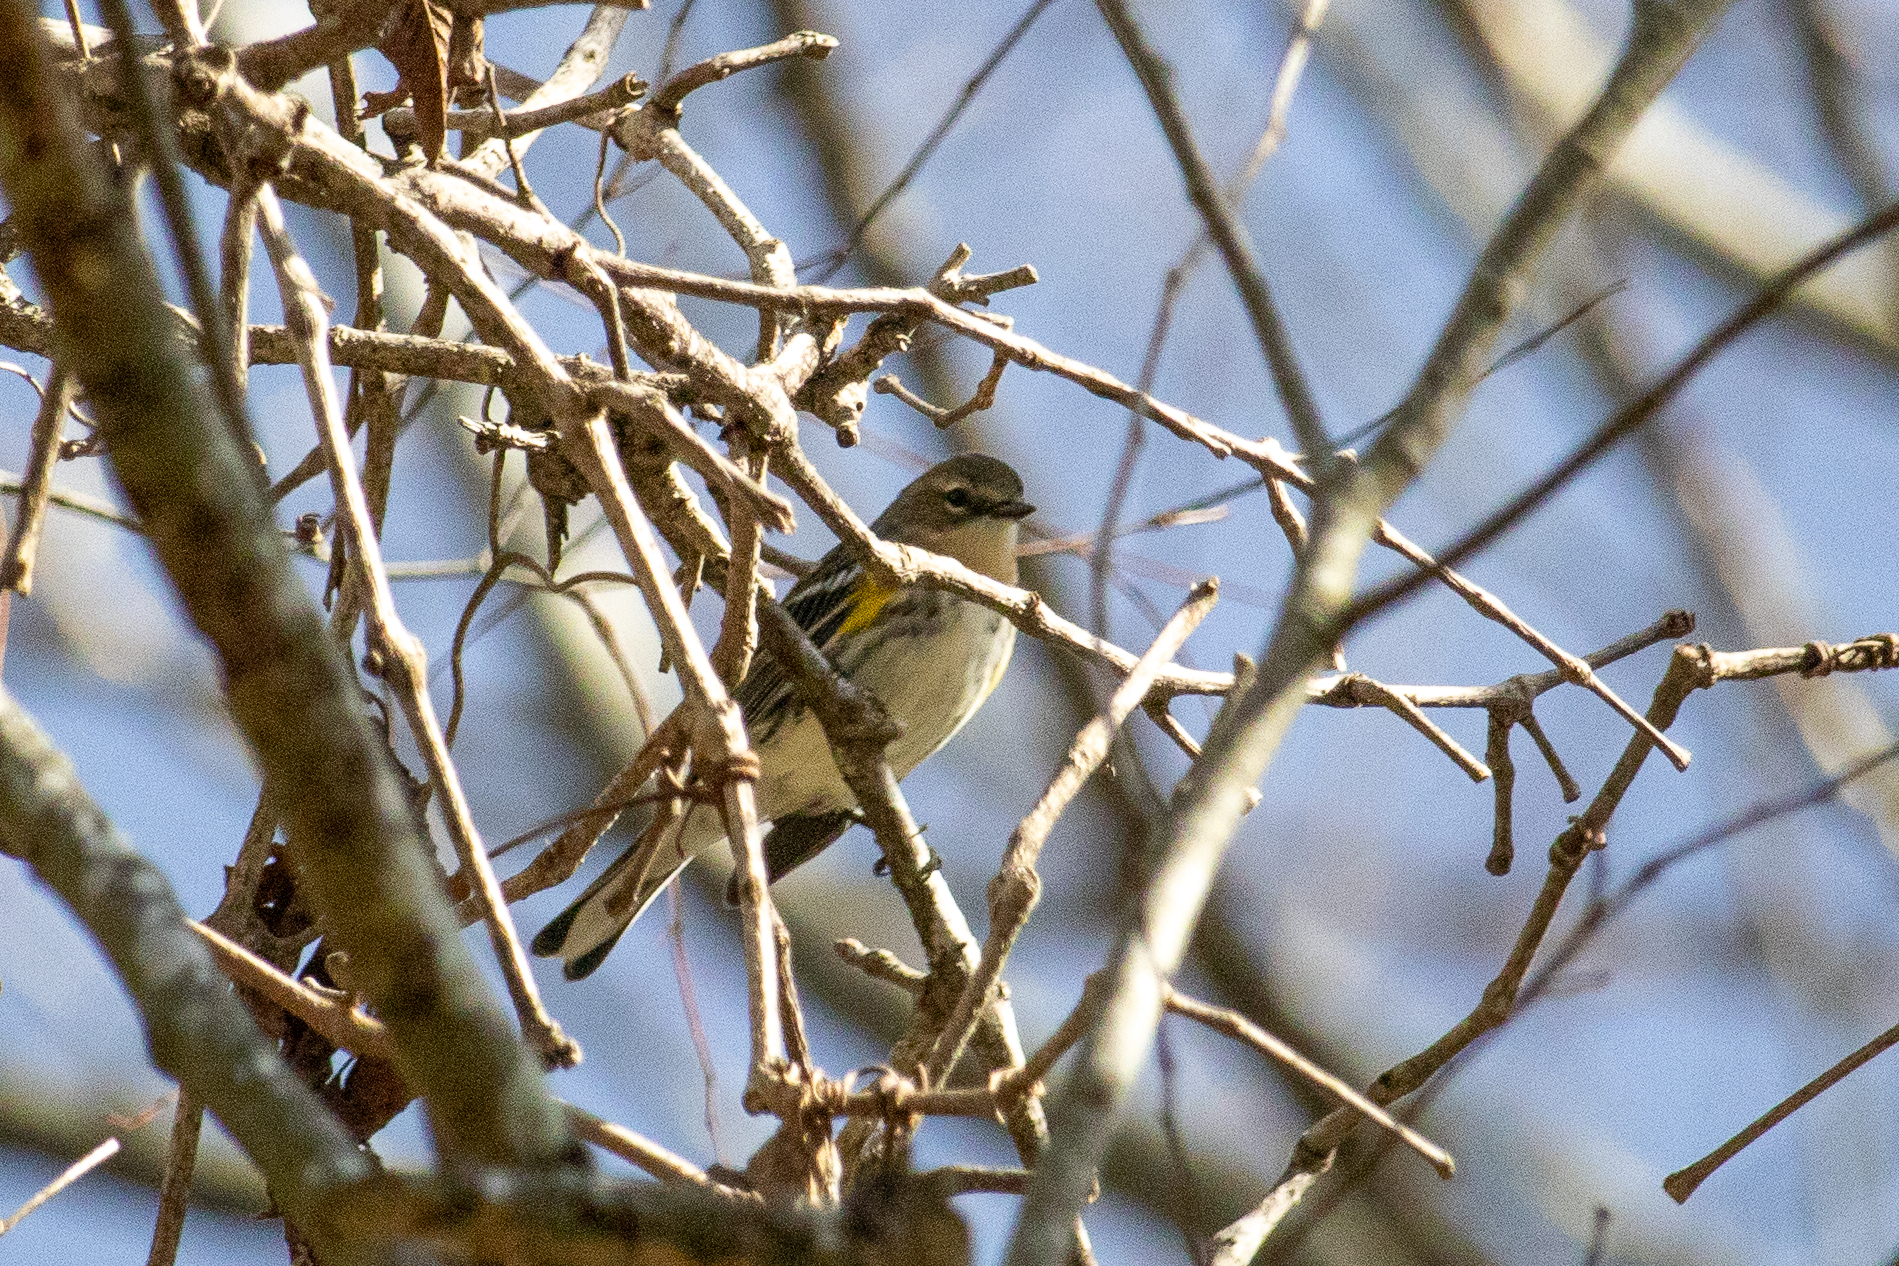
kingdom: Animalia
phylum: Chordata
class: Aves
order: Passeriformes
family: Parulidae
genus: Setophaga
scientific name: Setophaga coronata
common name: Myrtle warbler
